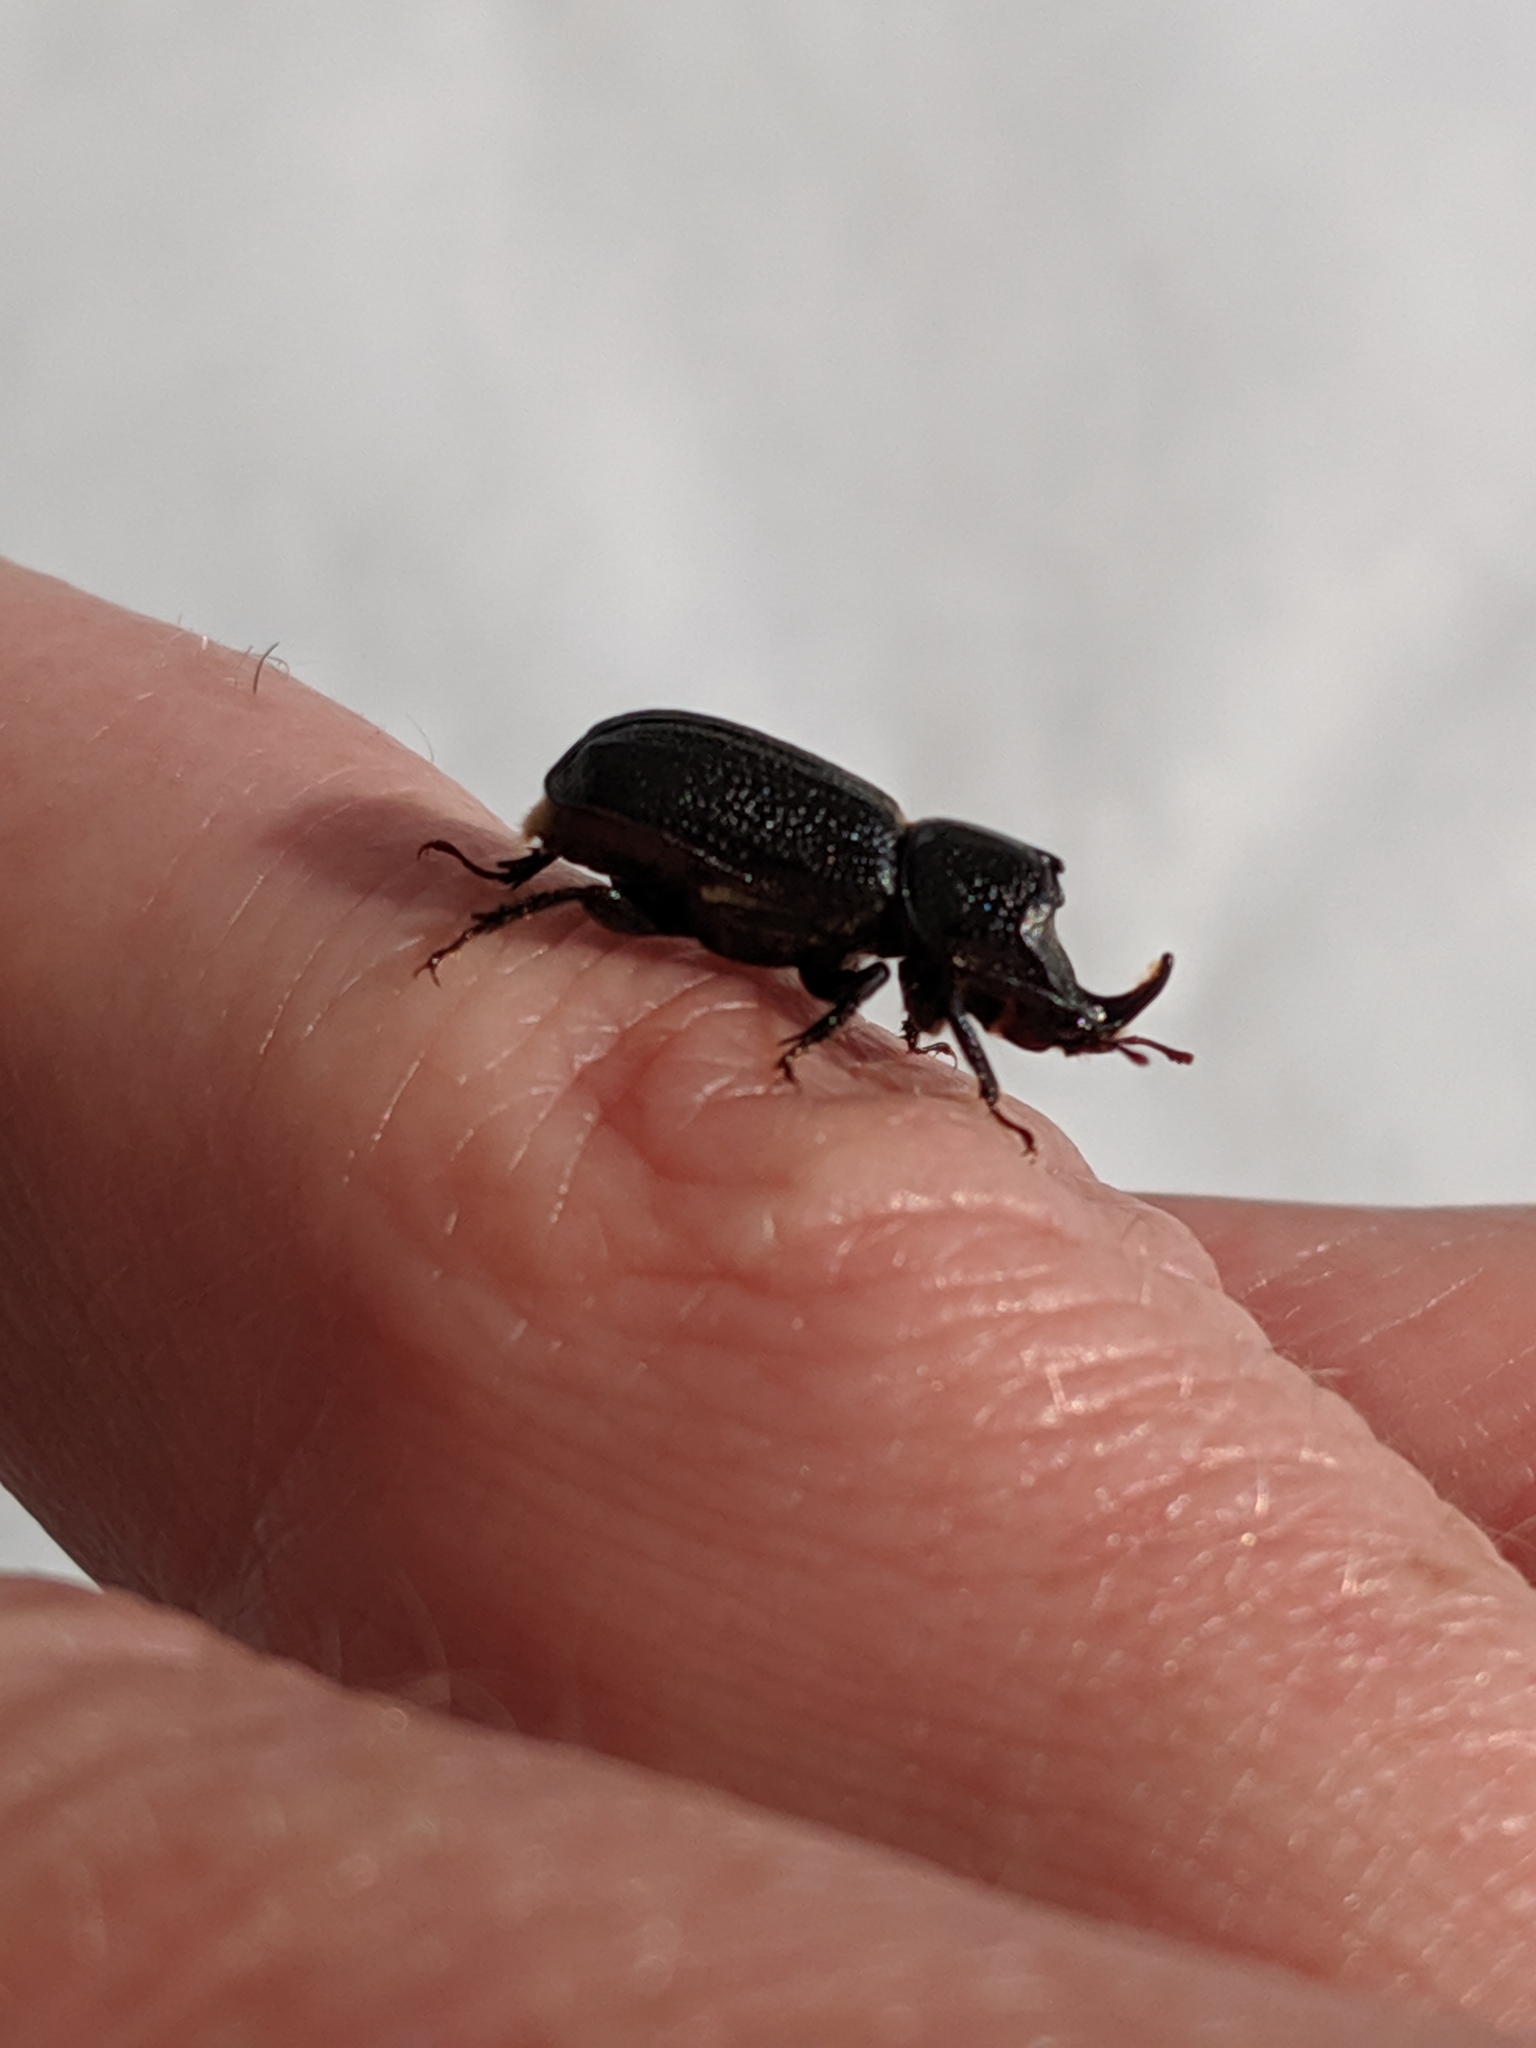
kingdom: Animalia
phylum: Arthropoda
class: Insecta
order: Coleoptera
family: Lucanidae
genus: Sinodendron
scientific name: Sinodendron cylindricum
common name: Rhinoceros beetle
